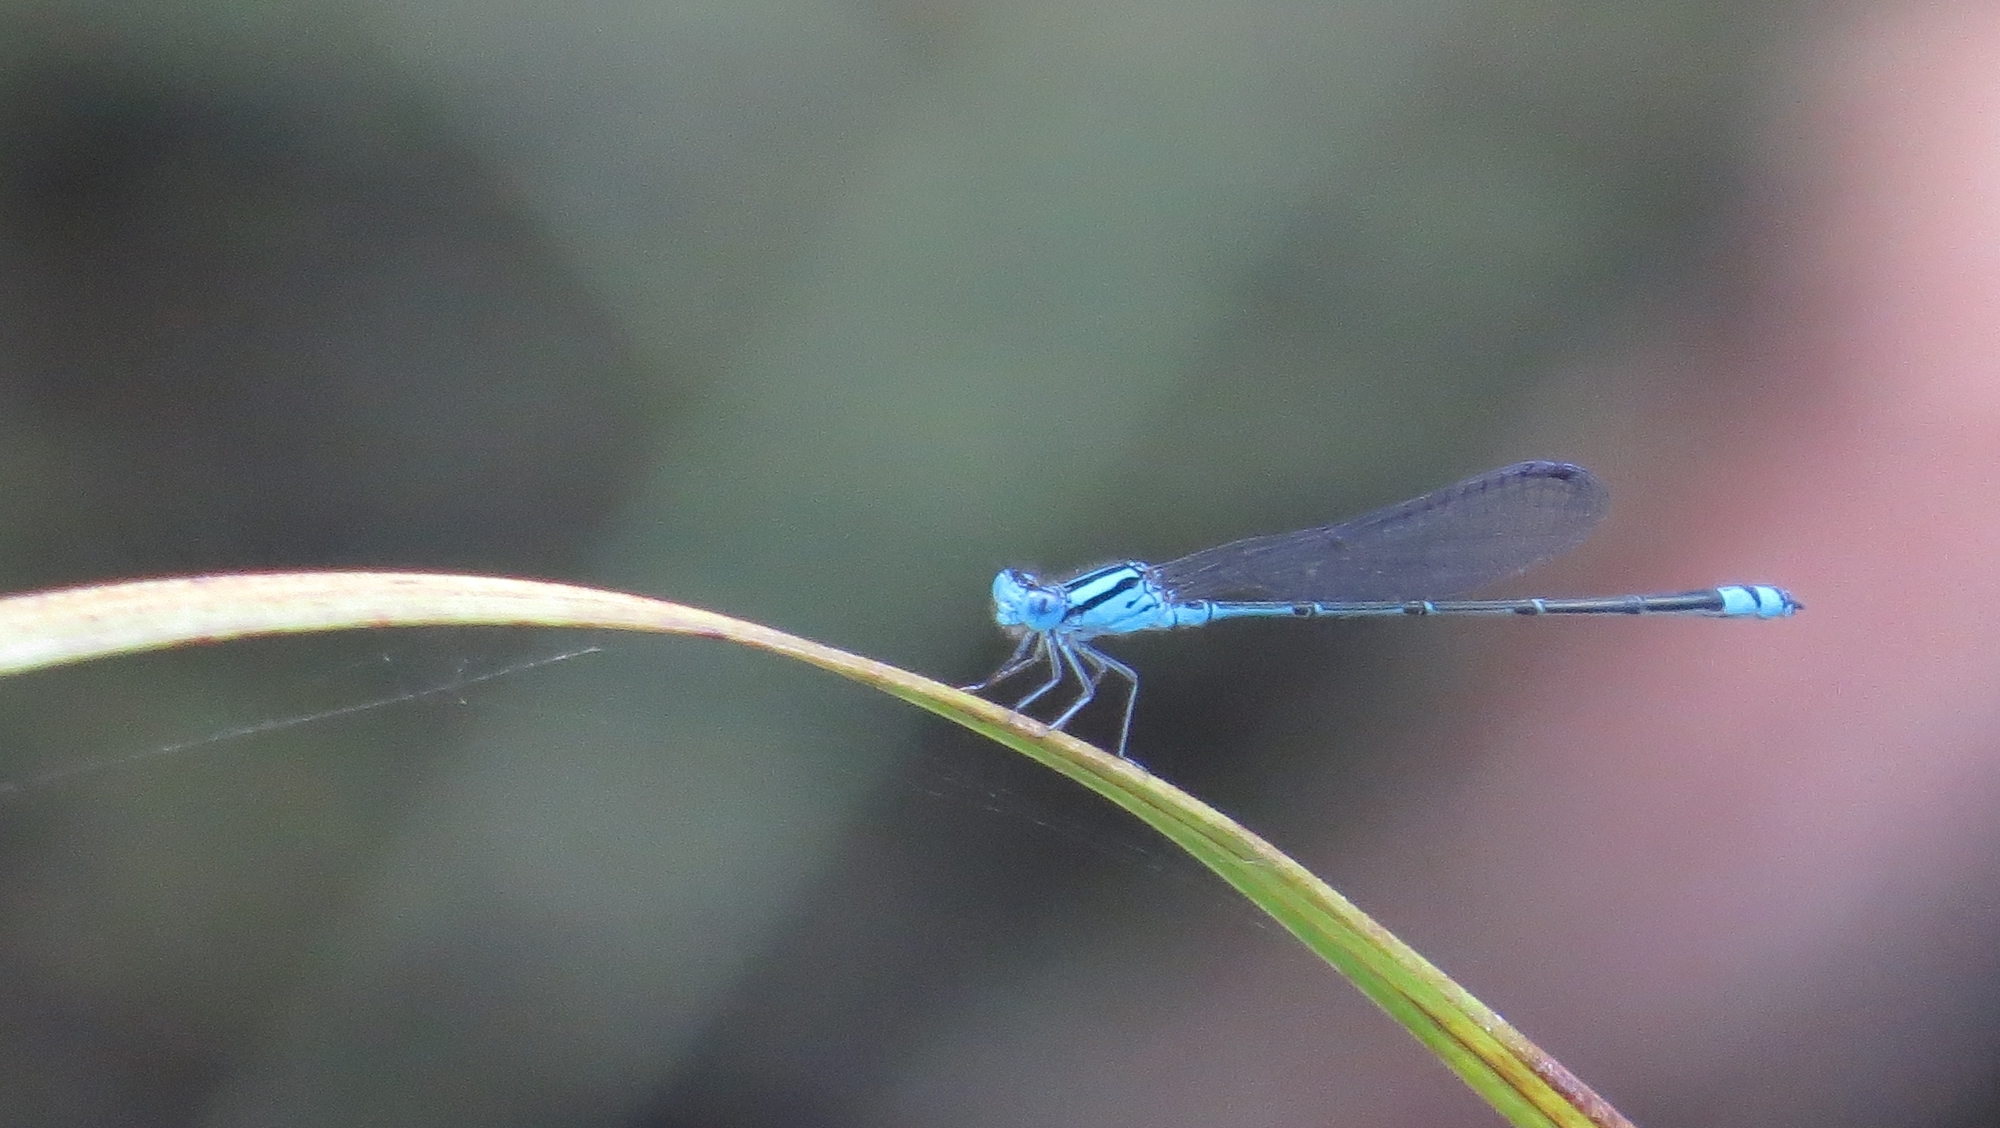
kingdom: Animalia
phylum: Arthropoda
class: Insecta
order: Odonata
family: Coenagrionidae
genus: Pseudagrion
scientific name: Pseudagrion microcephalum
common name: Blue riverdamsel
